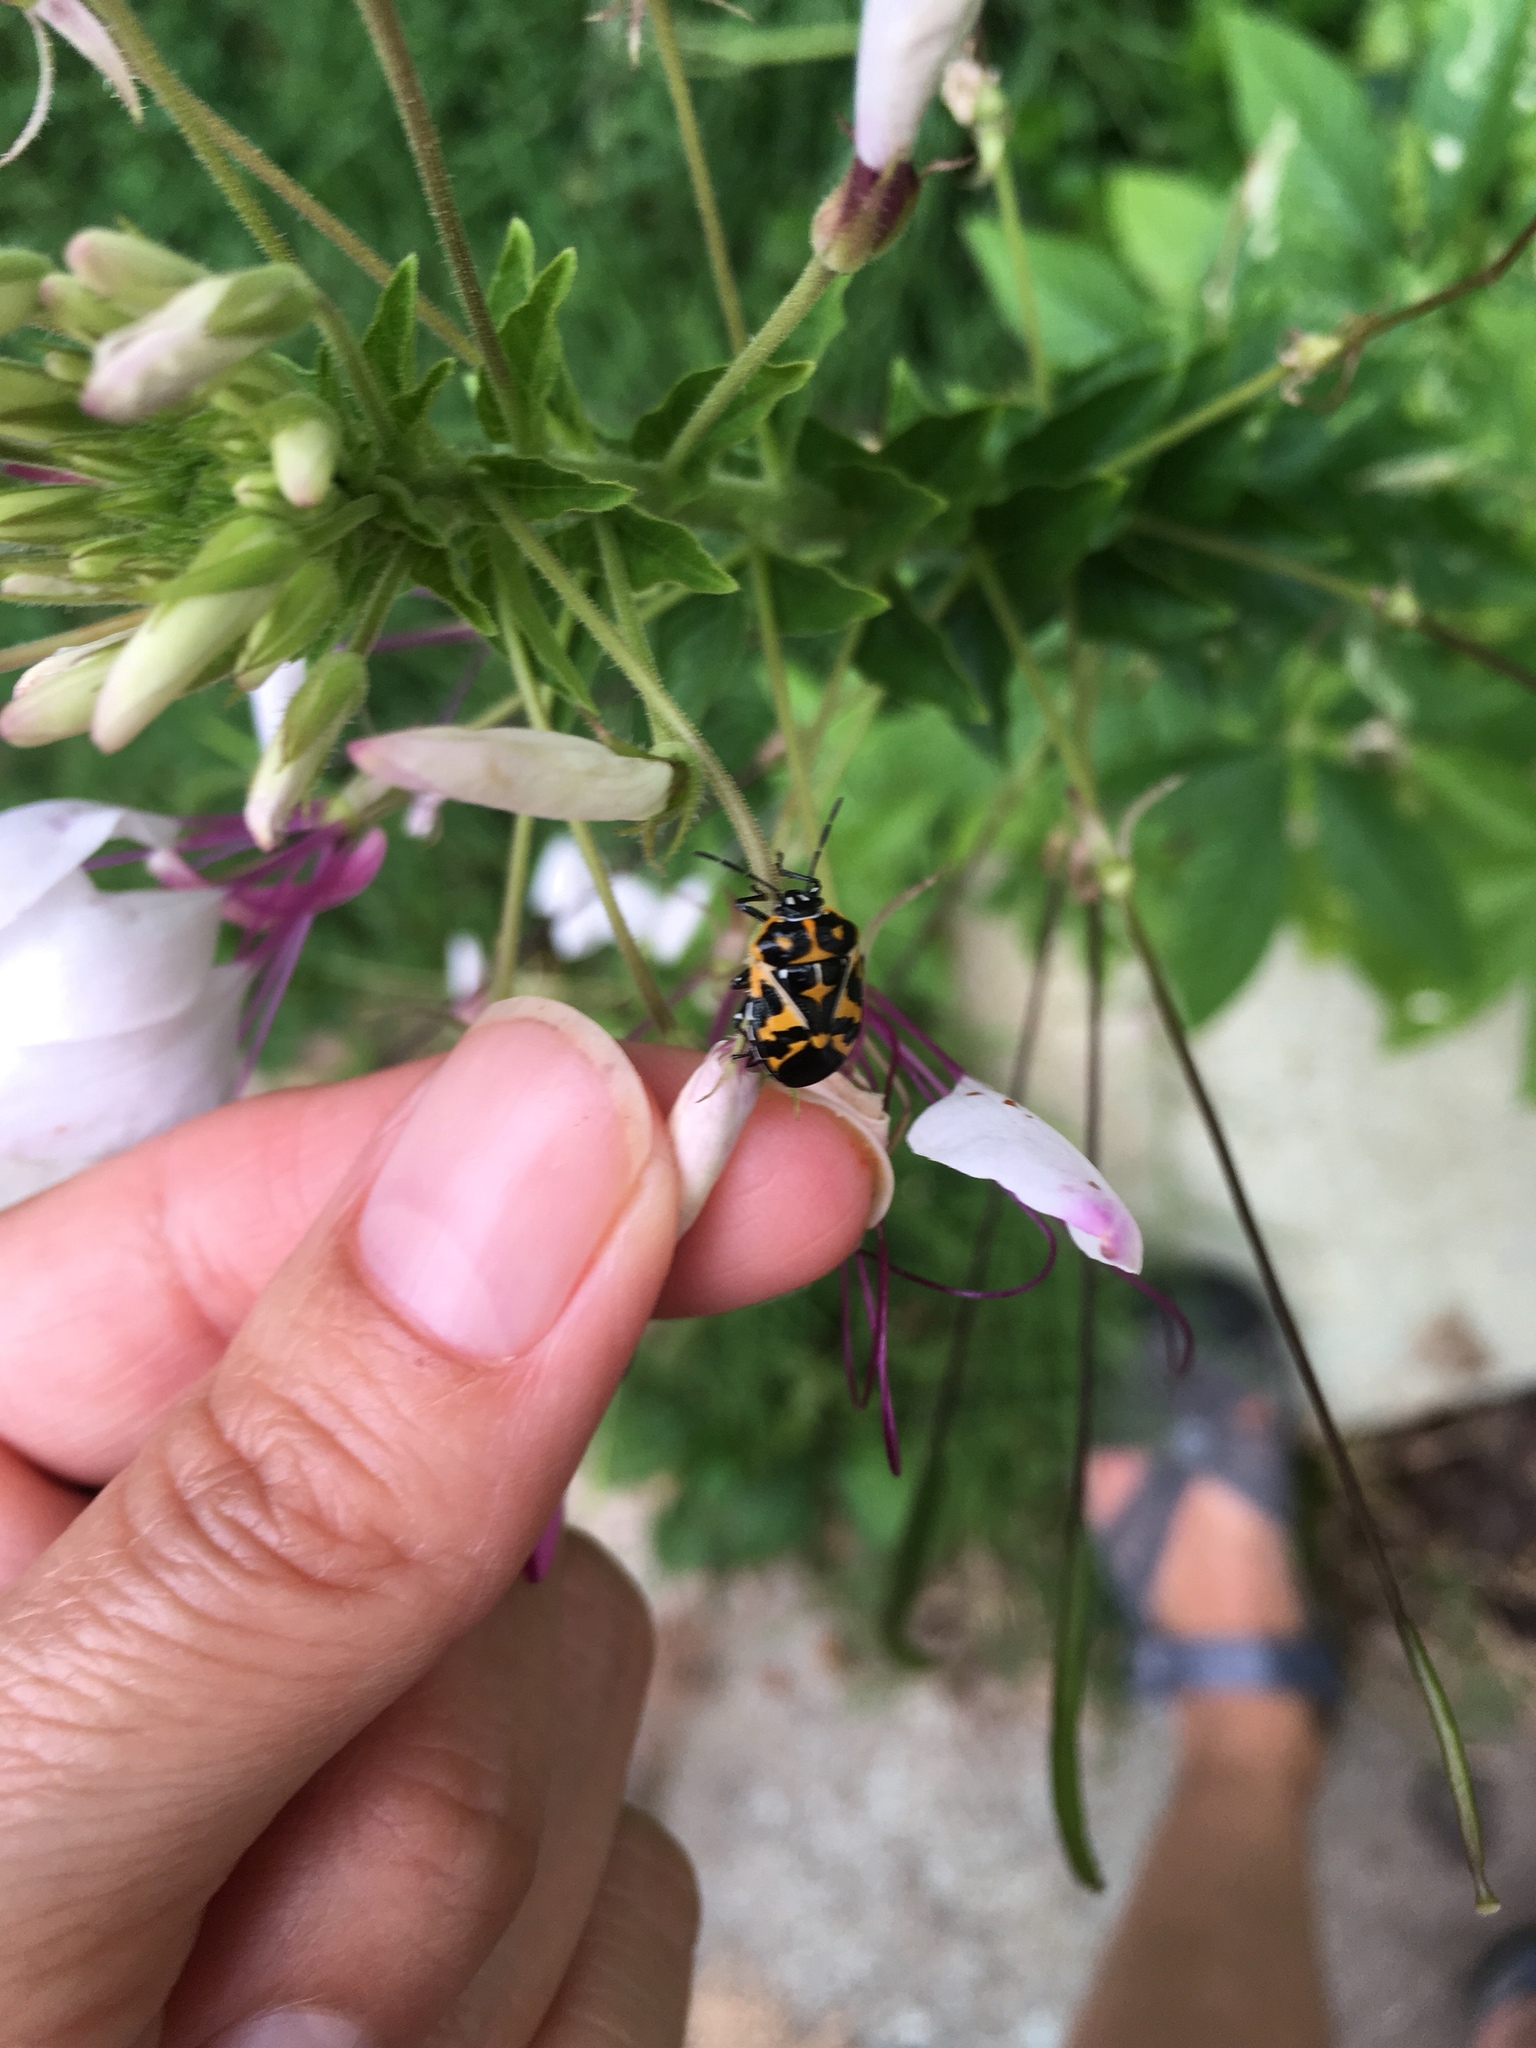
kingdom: Animalia
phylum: Arthropoda
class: Insecta
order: Hemiptera
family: Pentatomidae
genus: Murgantia
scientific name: Murgantia histrionica
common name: Harlequin bug
